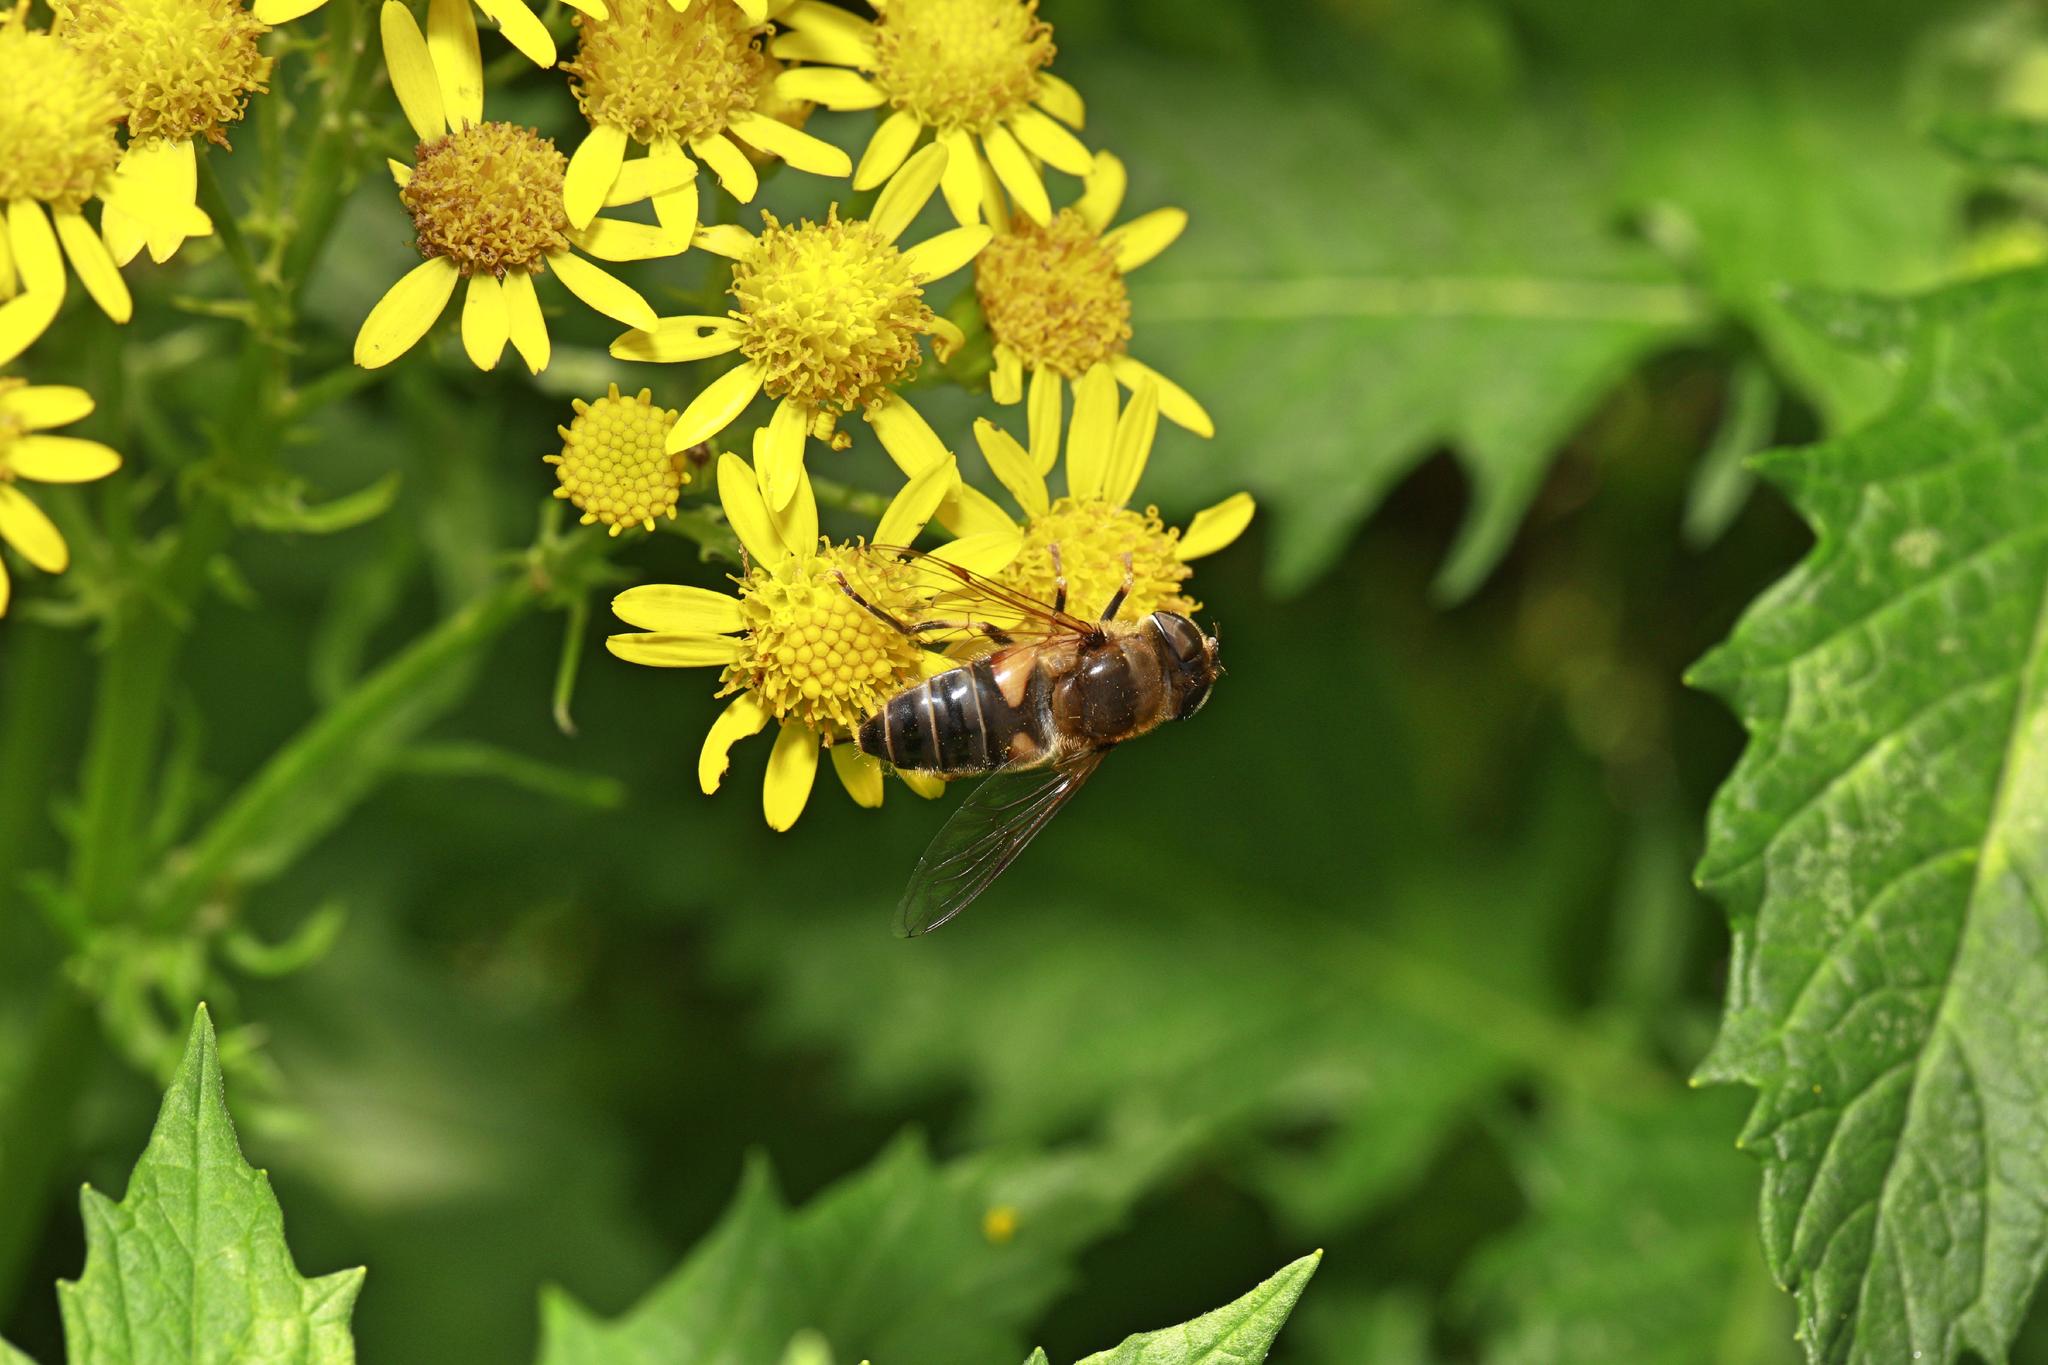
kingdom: Animalia
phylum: Arthropoda
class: Insecta
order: Diptera
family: Syrphidae
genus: Eristalis
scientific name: Eristalis pertinax
